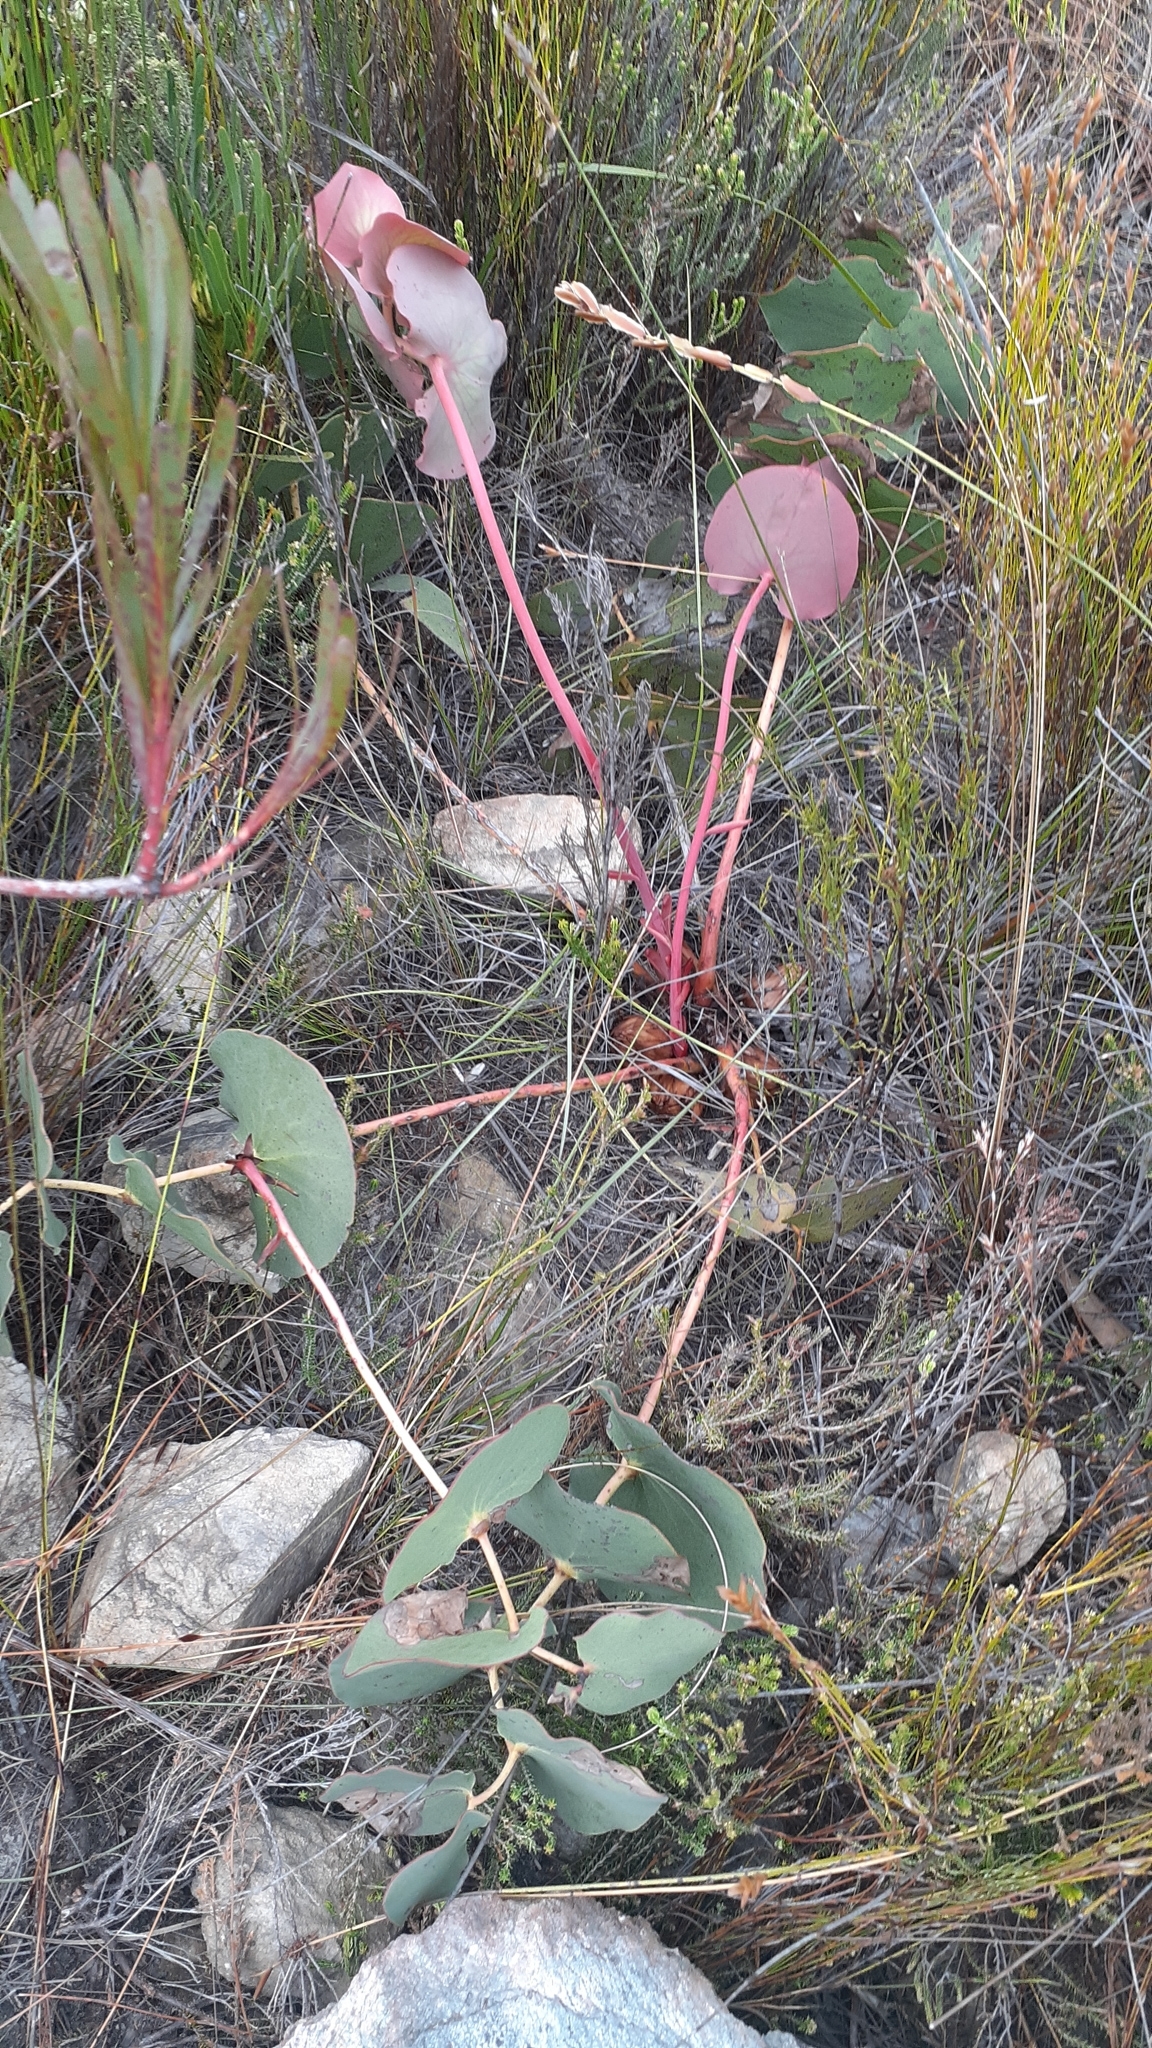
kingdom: Plantae
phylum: Tracheophyta
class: Magnoliopsida
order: Proteales
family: Proteaceae
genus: Protea
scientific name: Protea cordata
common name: Heart-leaf sugarbush
